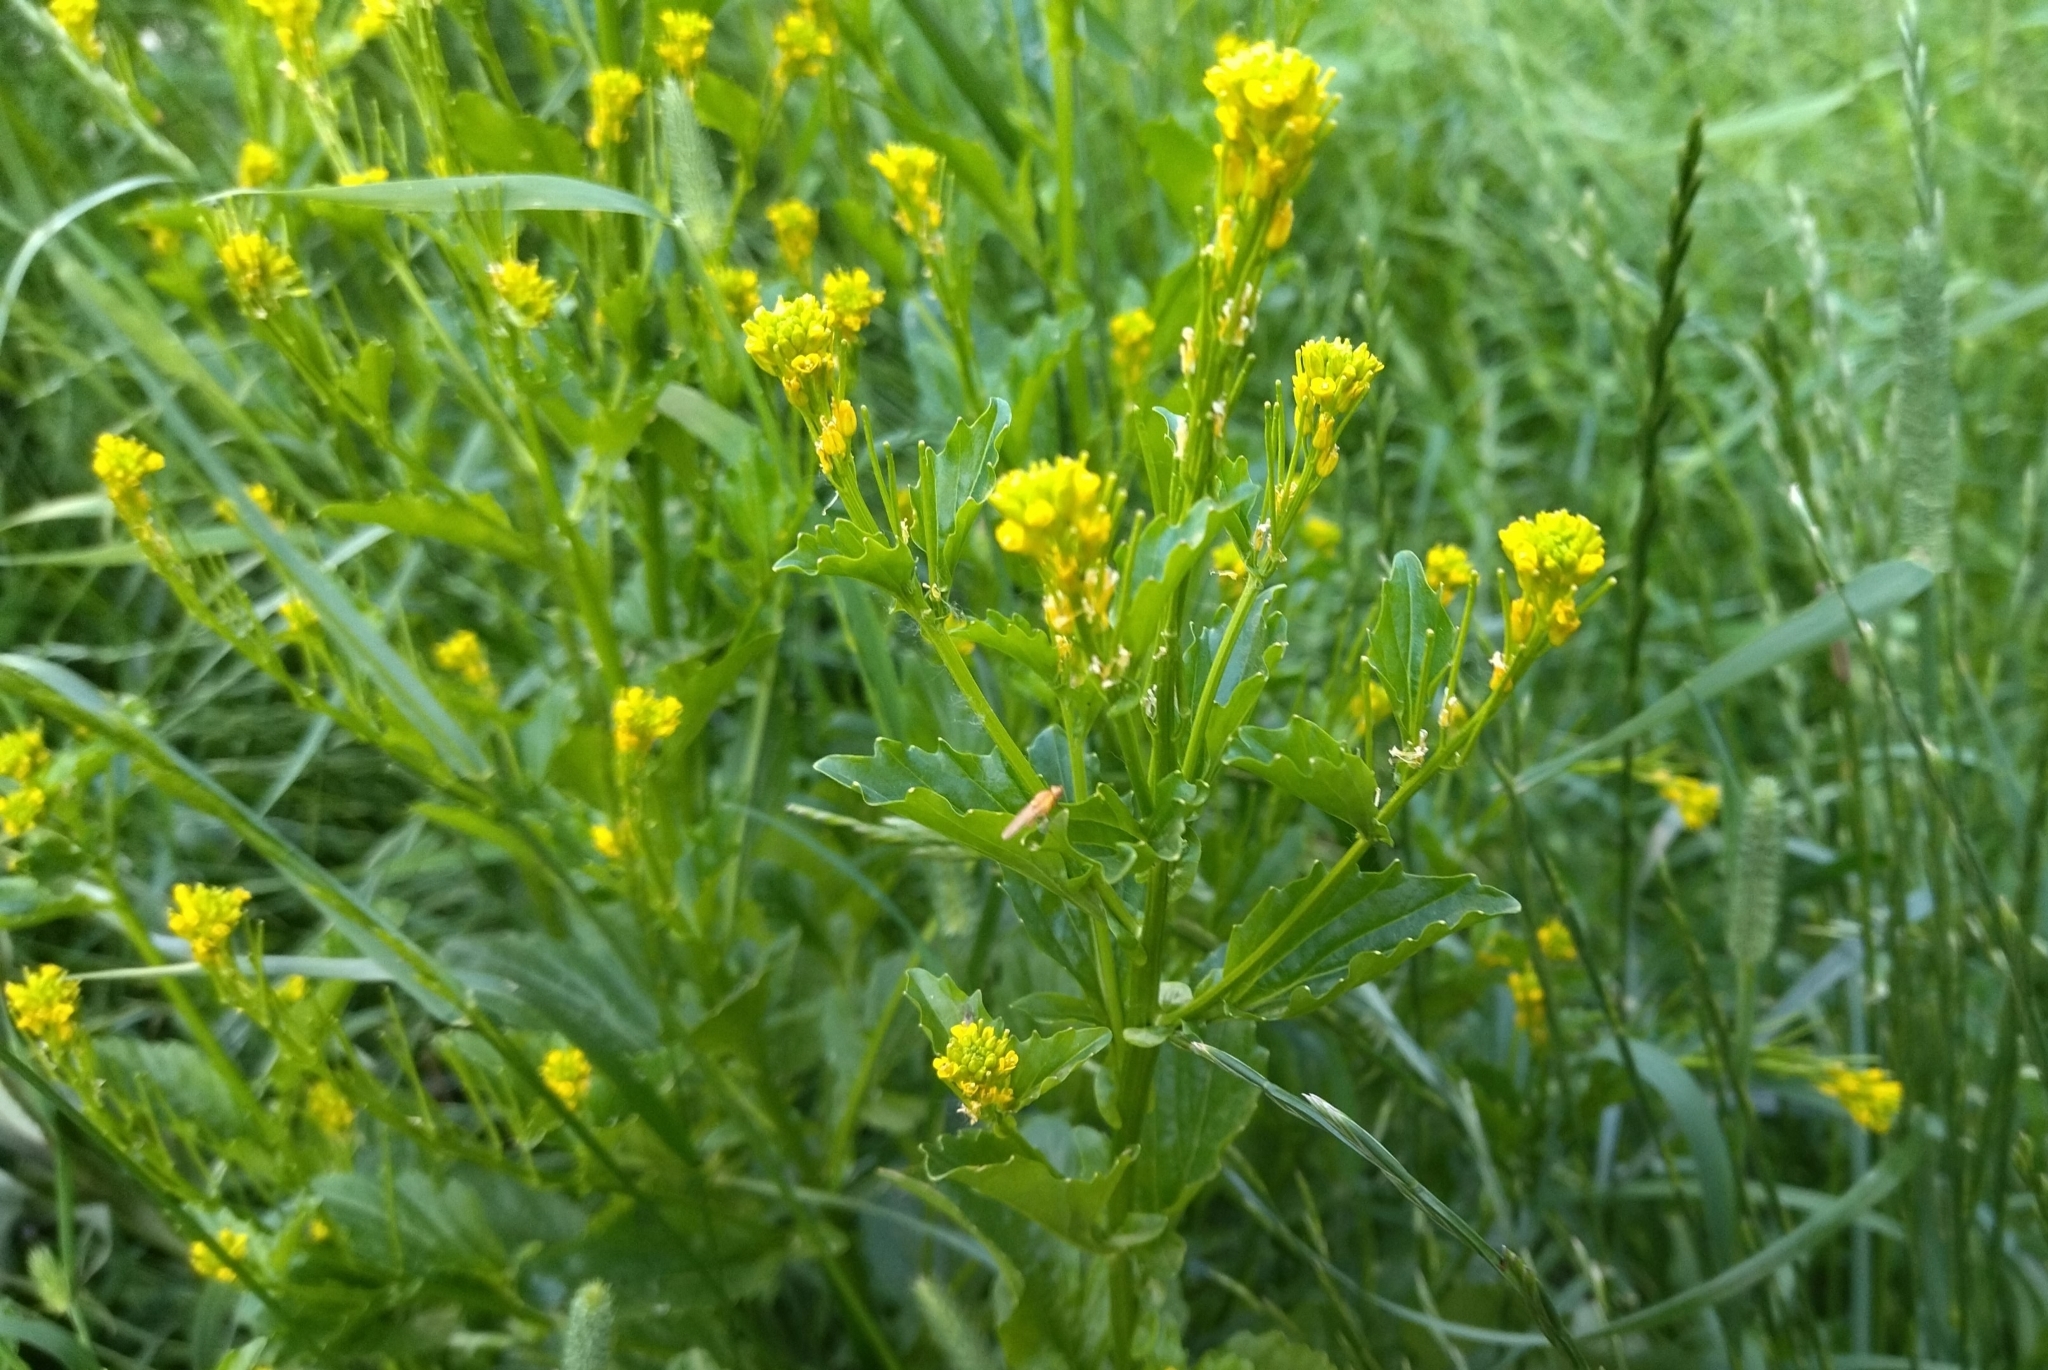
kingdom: Plantae
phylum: Tracheophyta
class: Magnoliopsida
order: Brassicales
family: Brassicaceae
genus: Barbarea
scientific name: Barbarea stricta
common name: Small-flowered winter-cress
